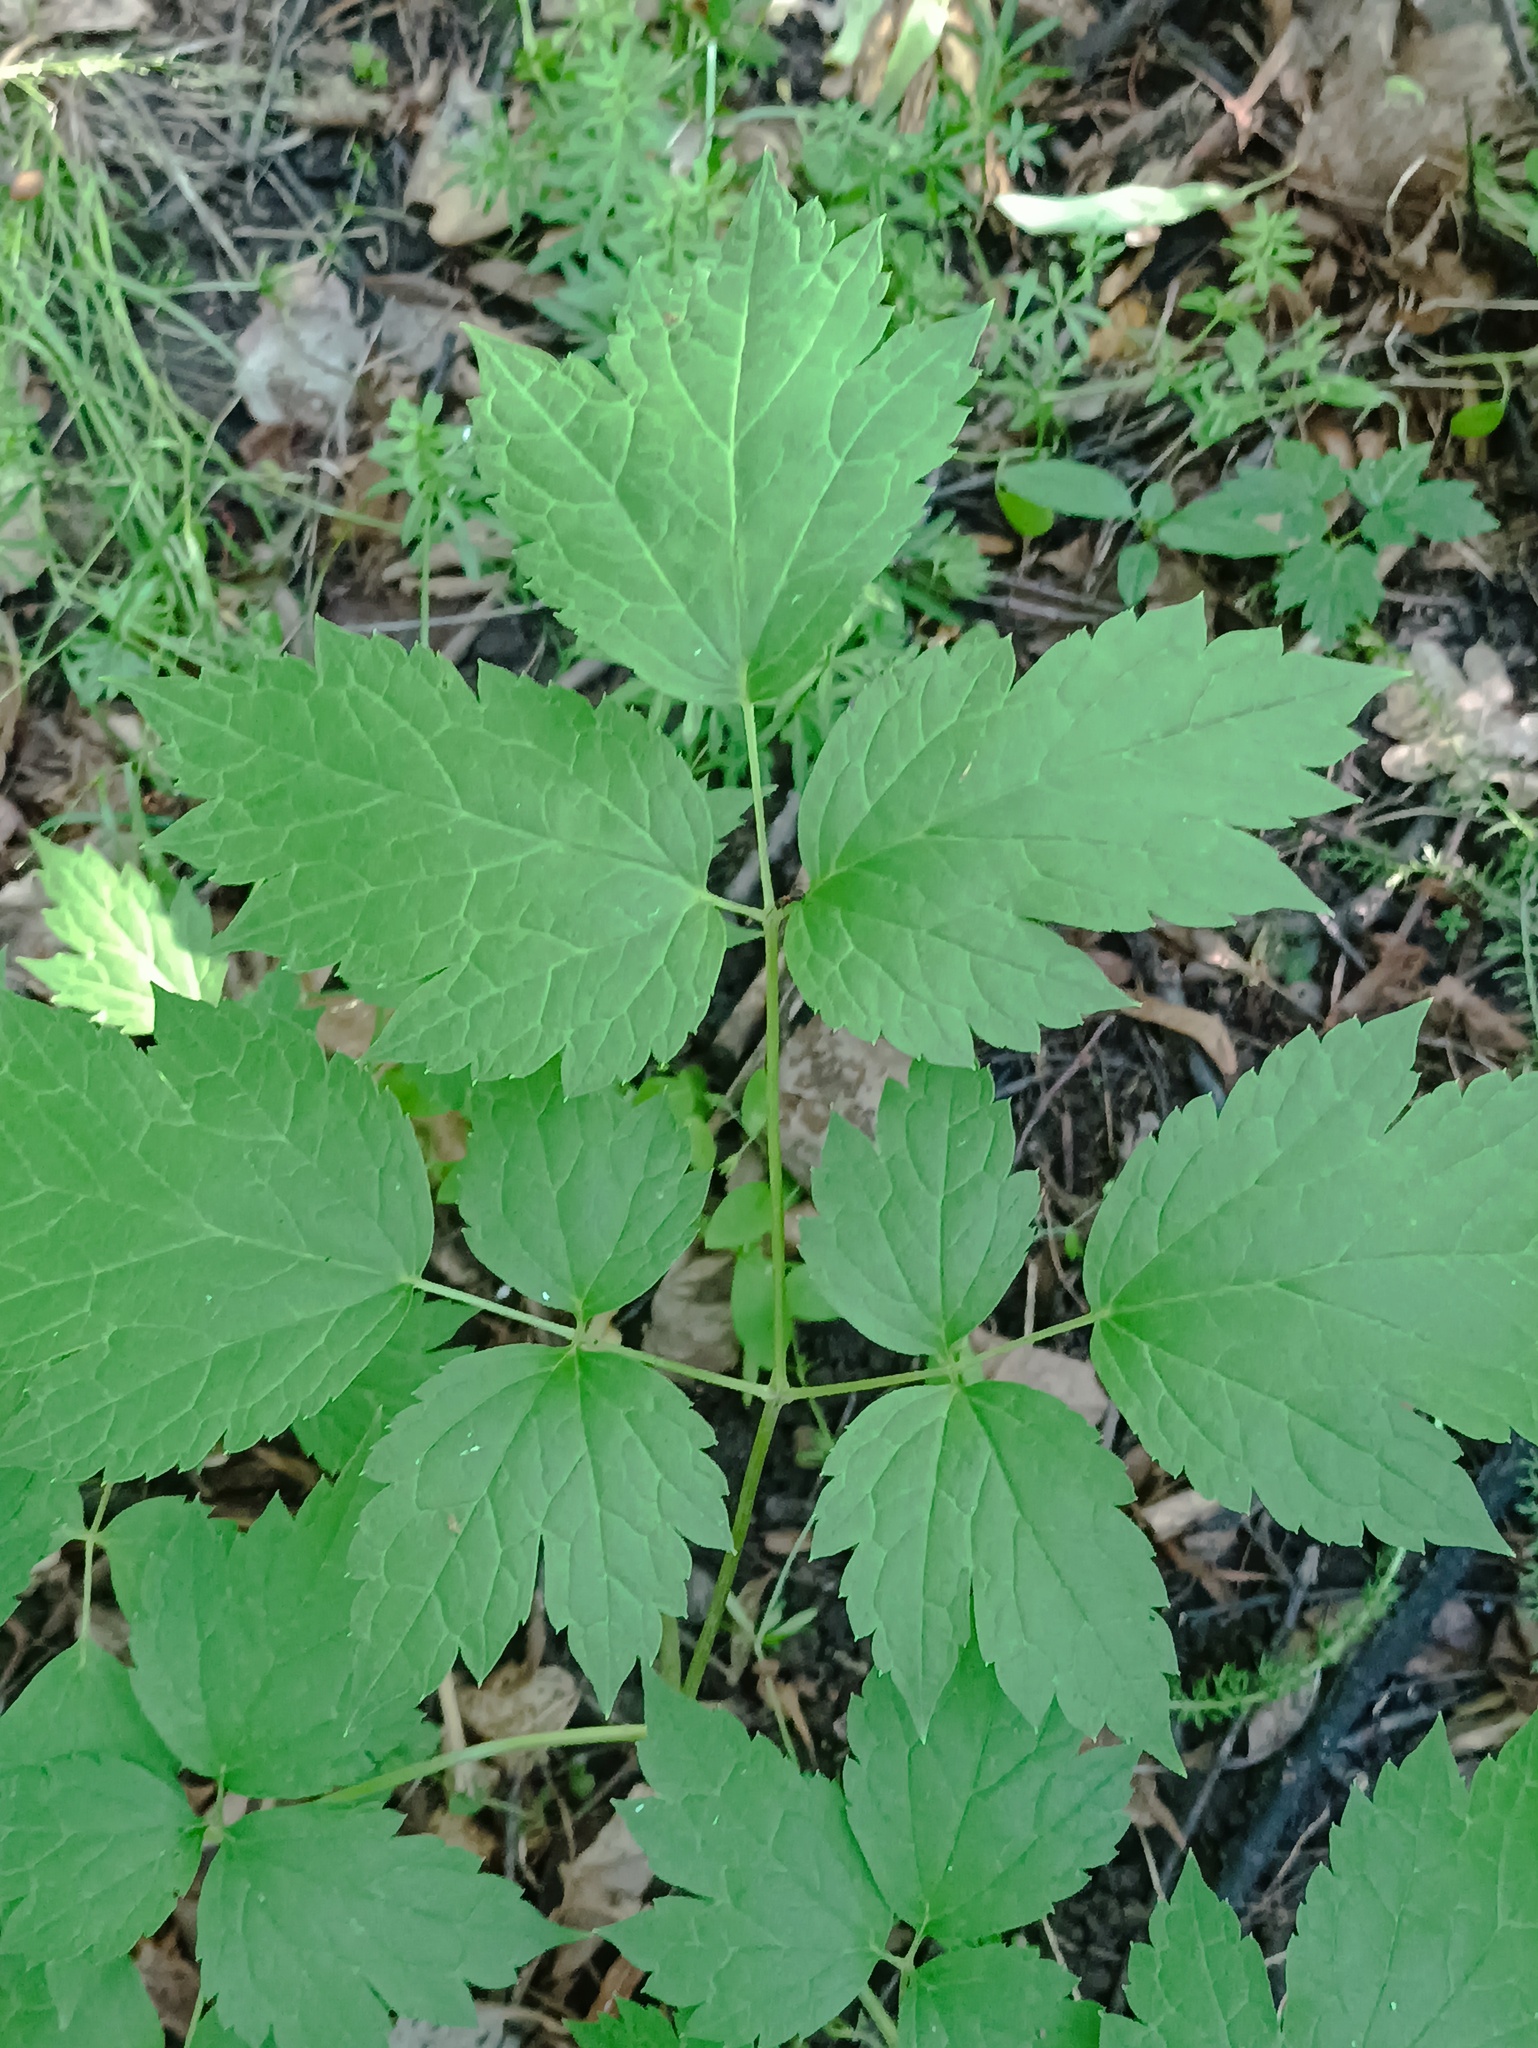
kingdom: Plantae
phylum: Tracheophyta
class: Magnoliopsida
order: Ranunculales
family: Ranunculaceae
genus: Actaea
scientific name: Actaea spicata
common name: Baneberry
